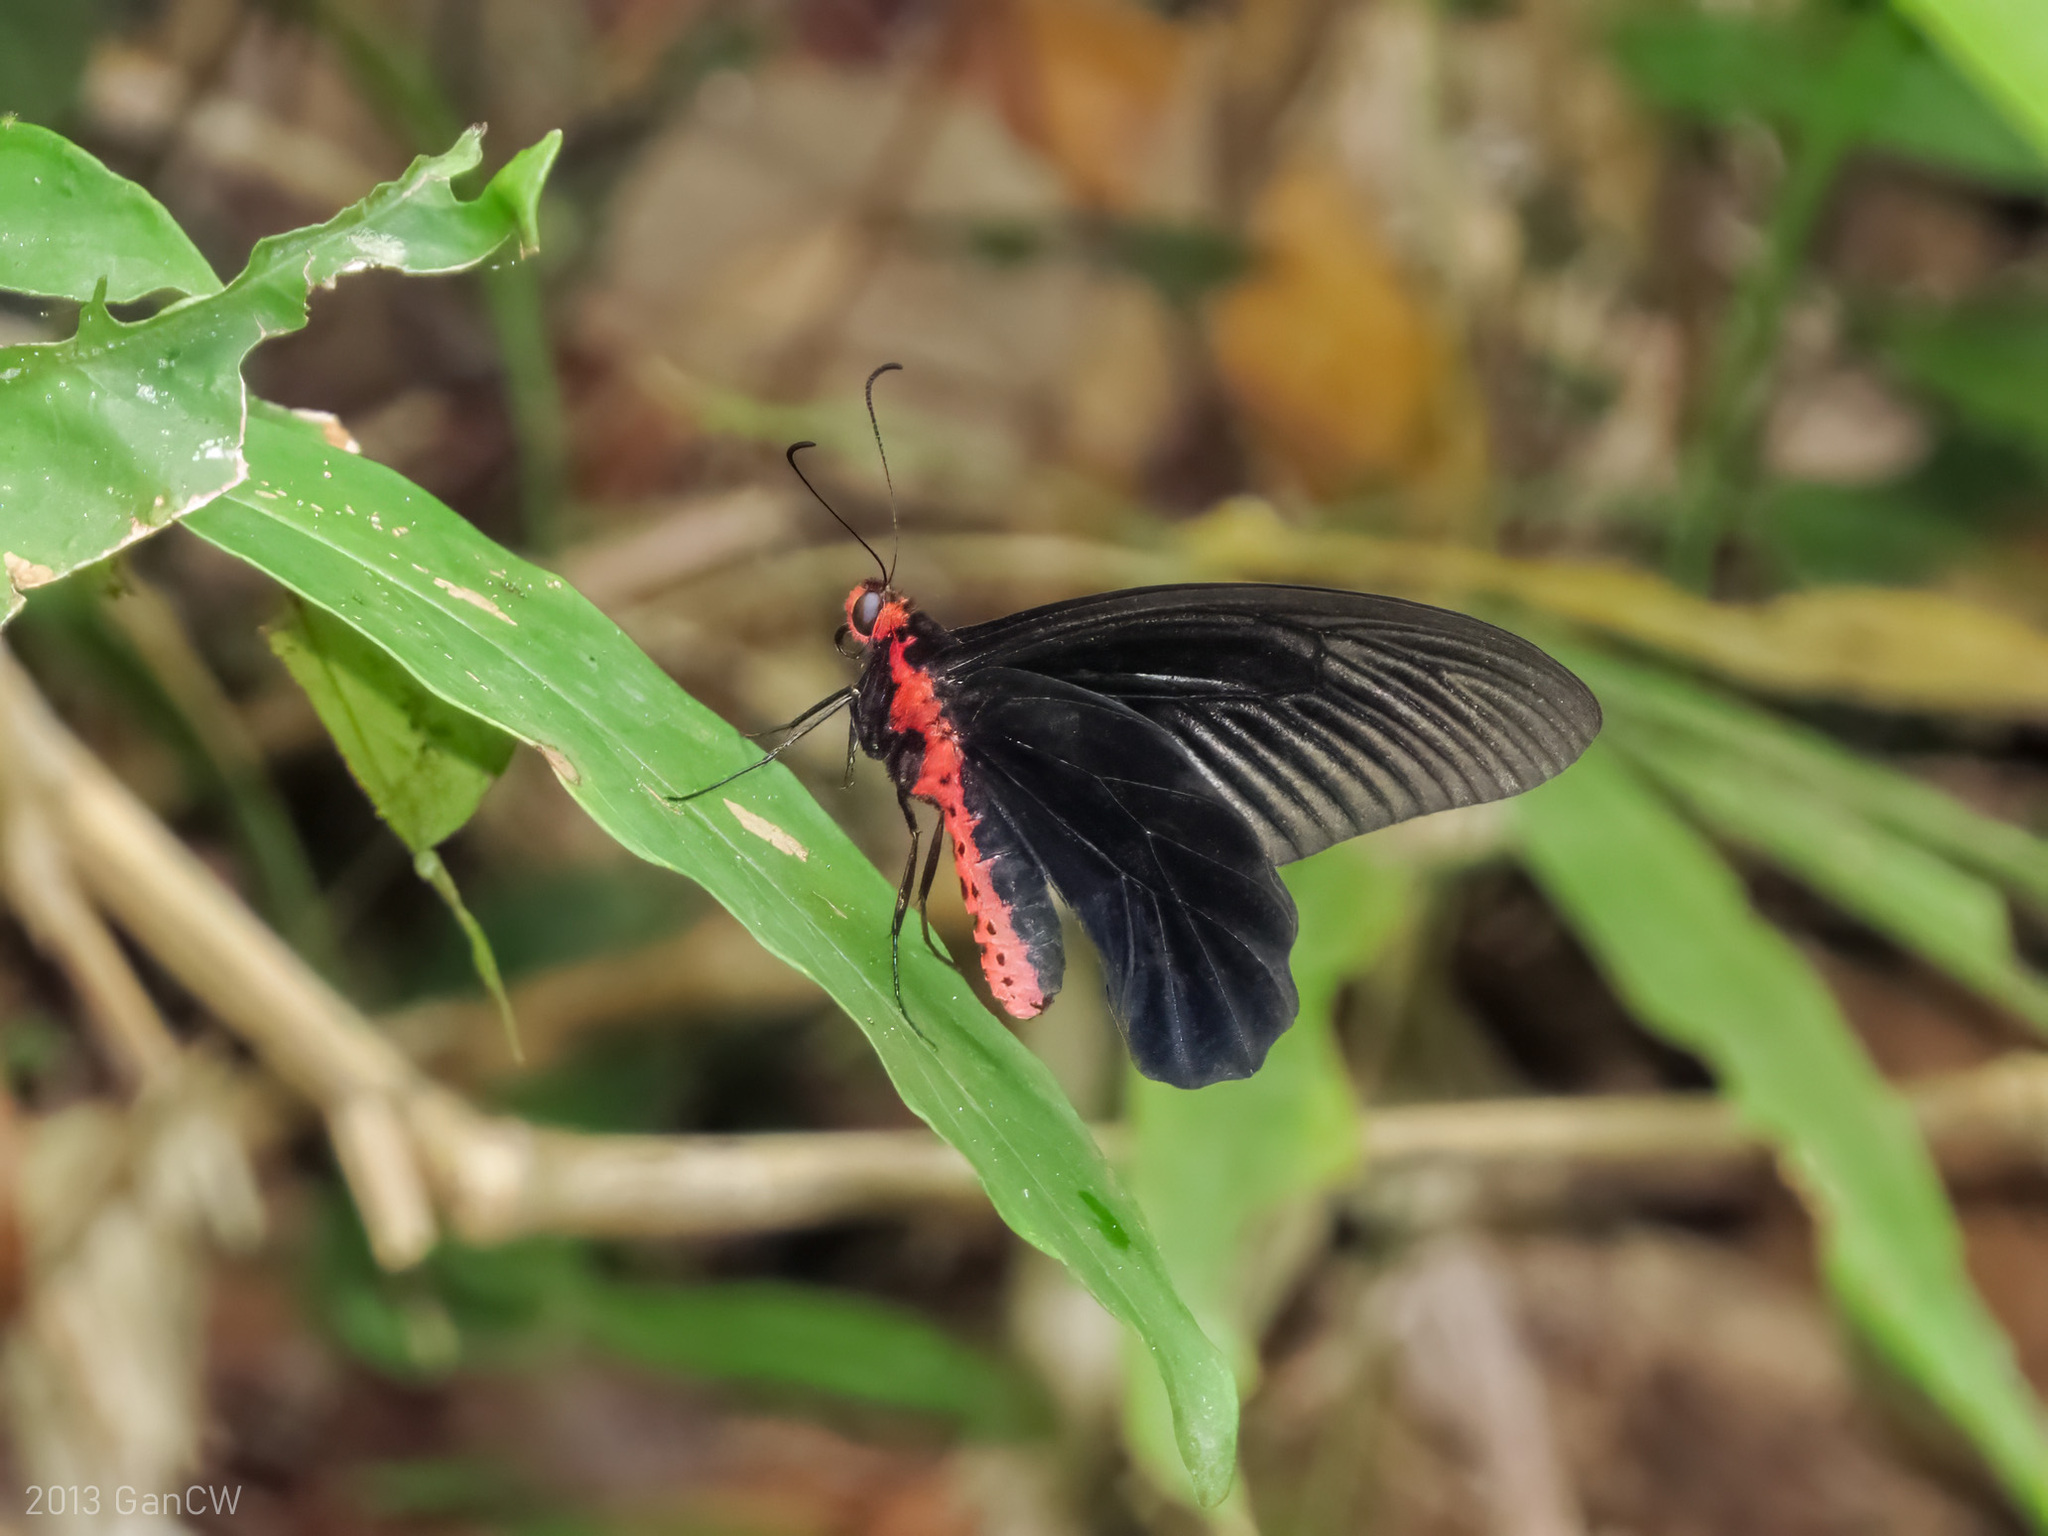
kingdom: Animalia
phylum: Arthropoda
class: Insecta
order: Lepidoptera
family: Papilionidae
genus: Atrophaneura
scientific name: Atrophaneura varuna
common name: Common batwing
